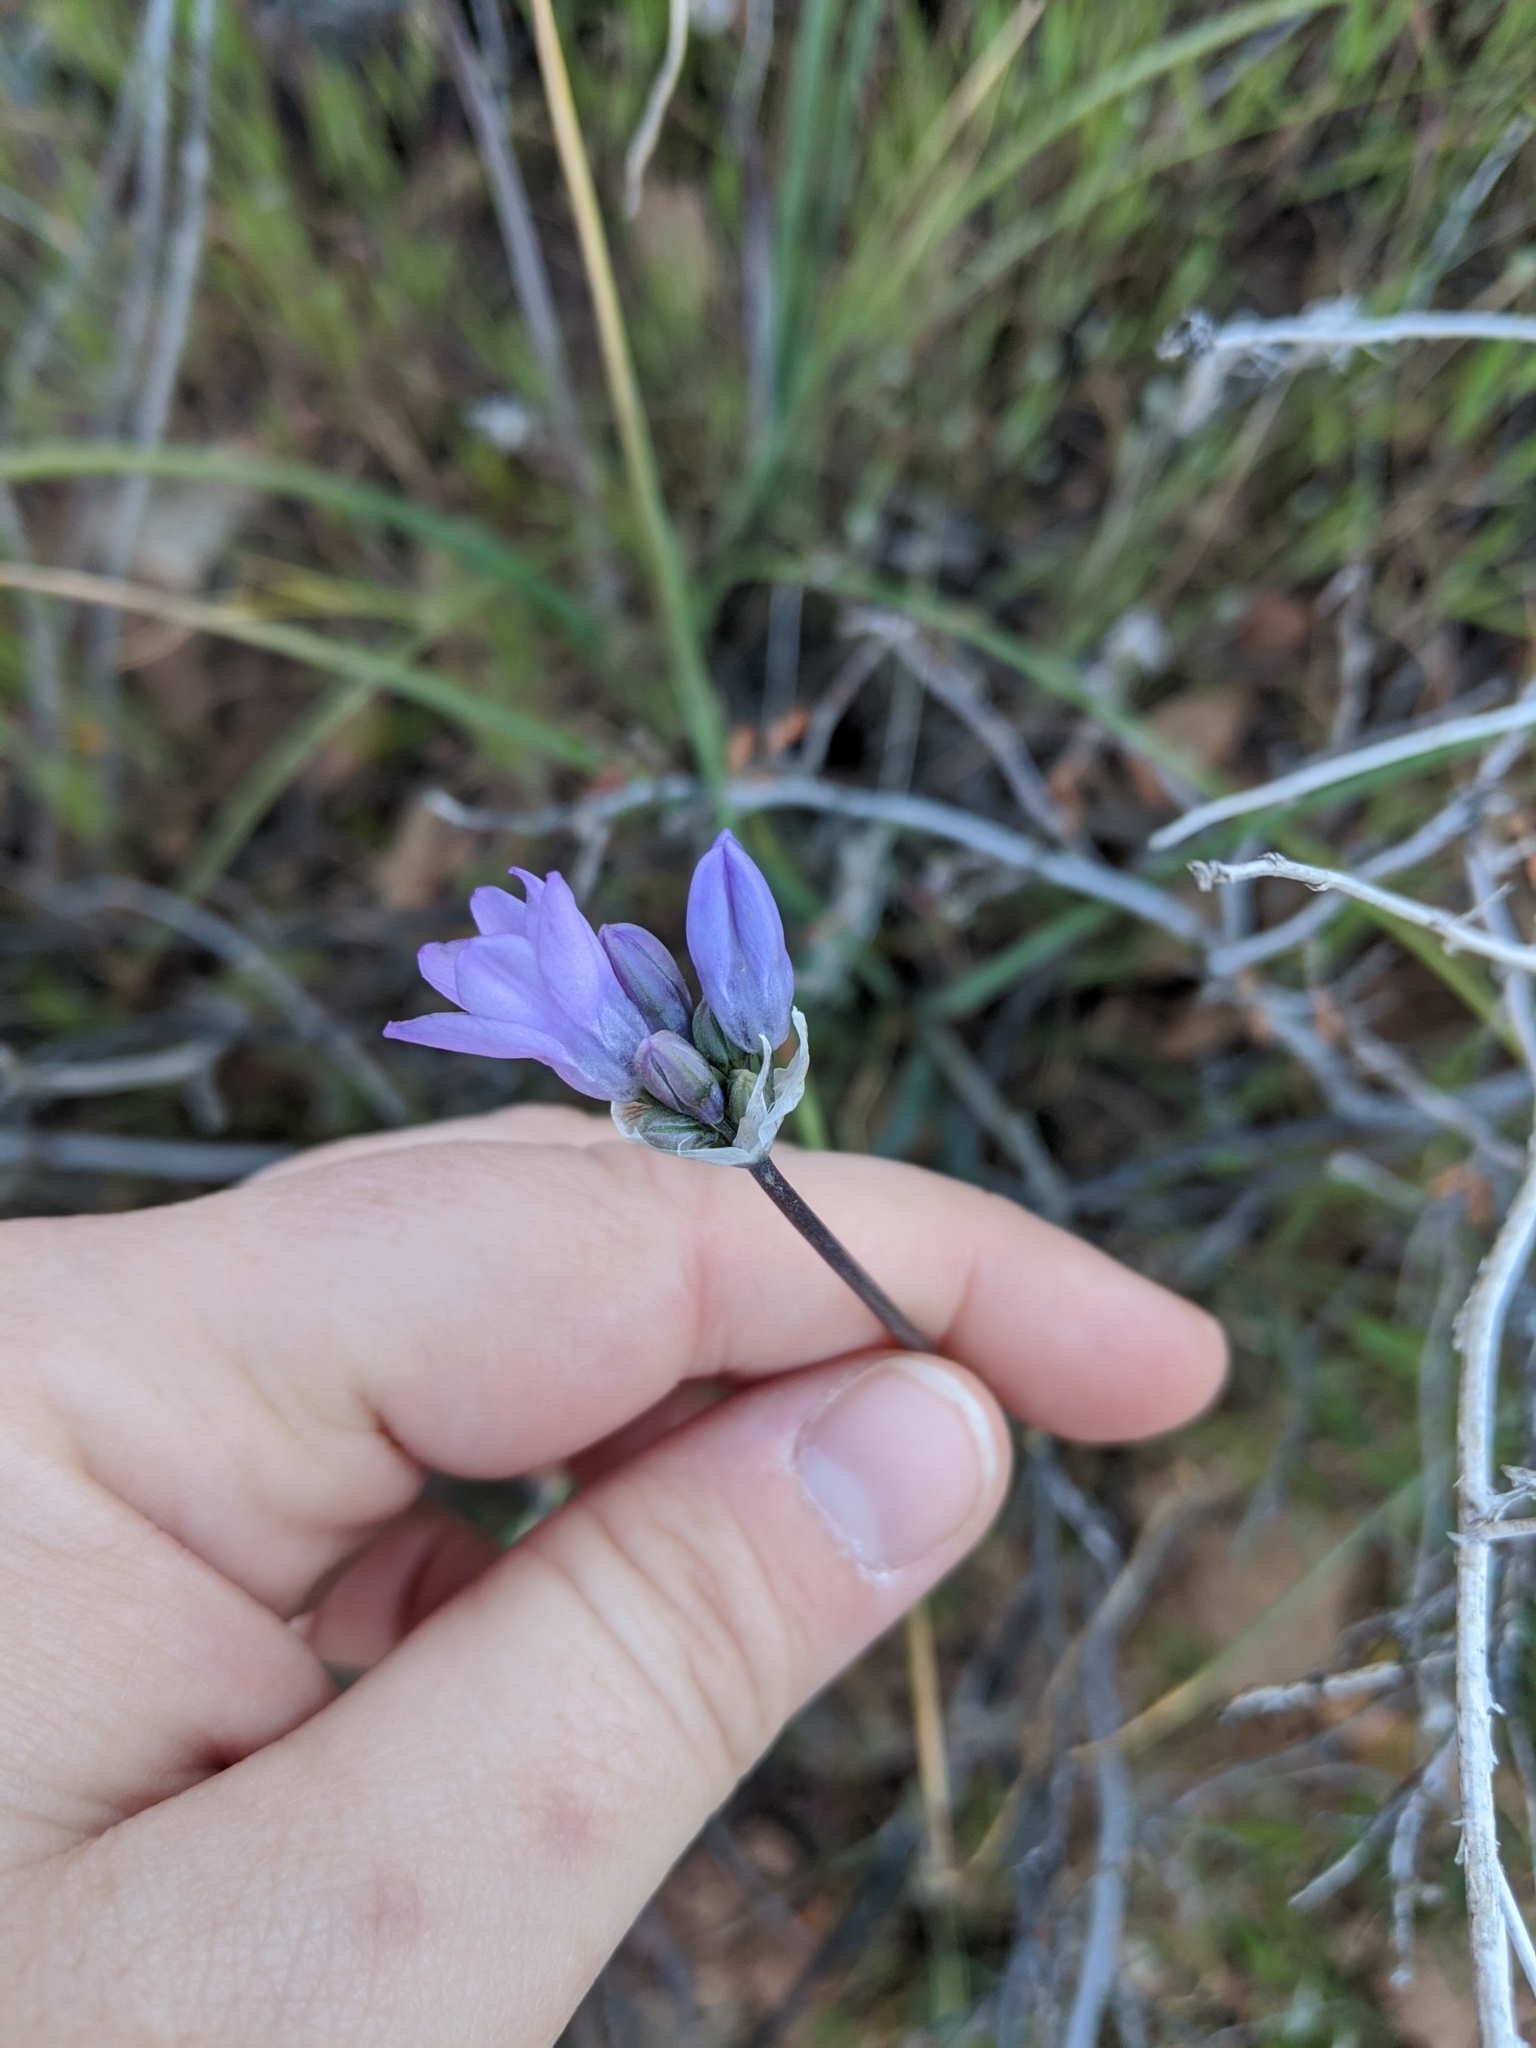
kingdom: Plantae
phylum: Tracheophyta
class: Liliopsida
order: Asparagales
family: Asparagaceae
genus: Dipterostemon
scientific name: Dipterostemon capitatus
